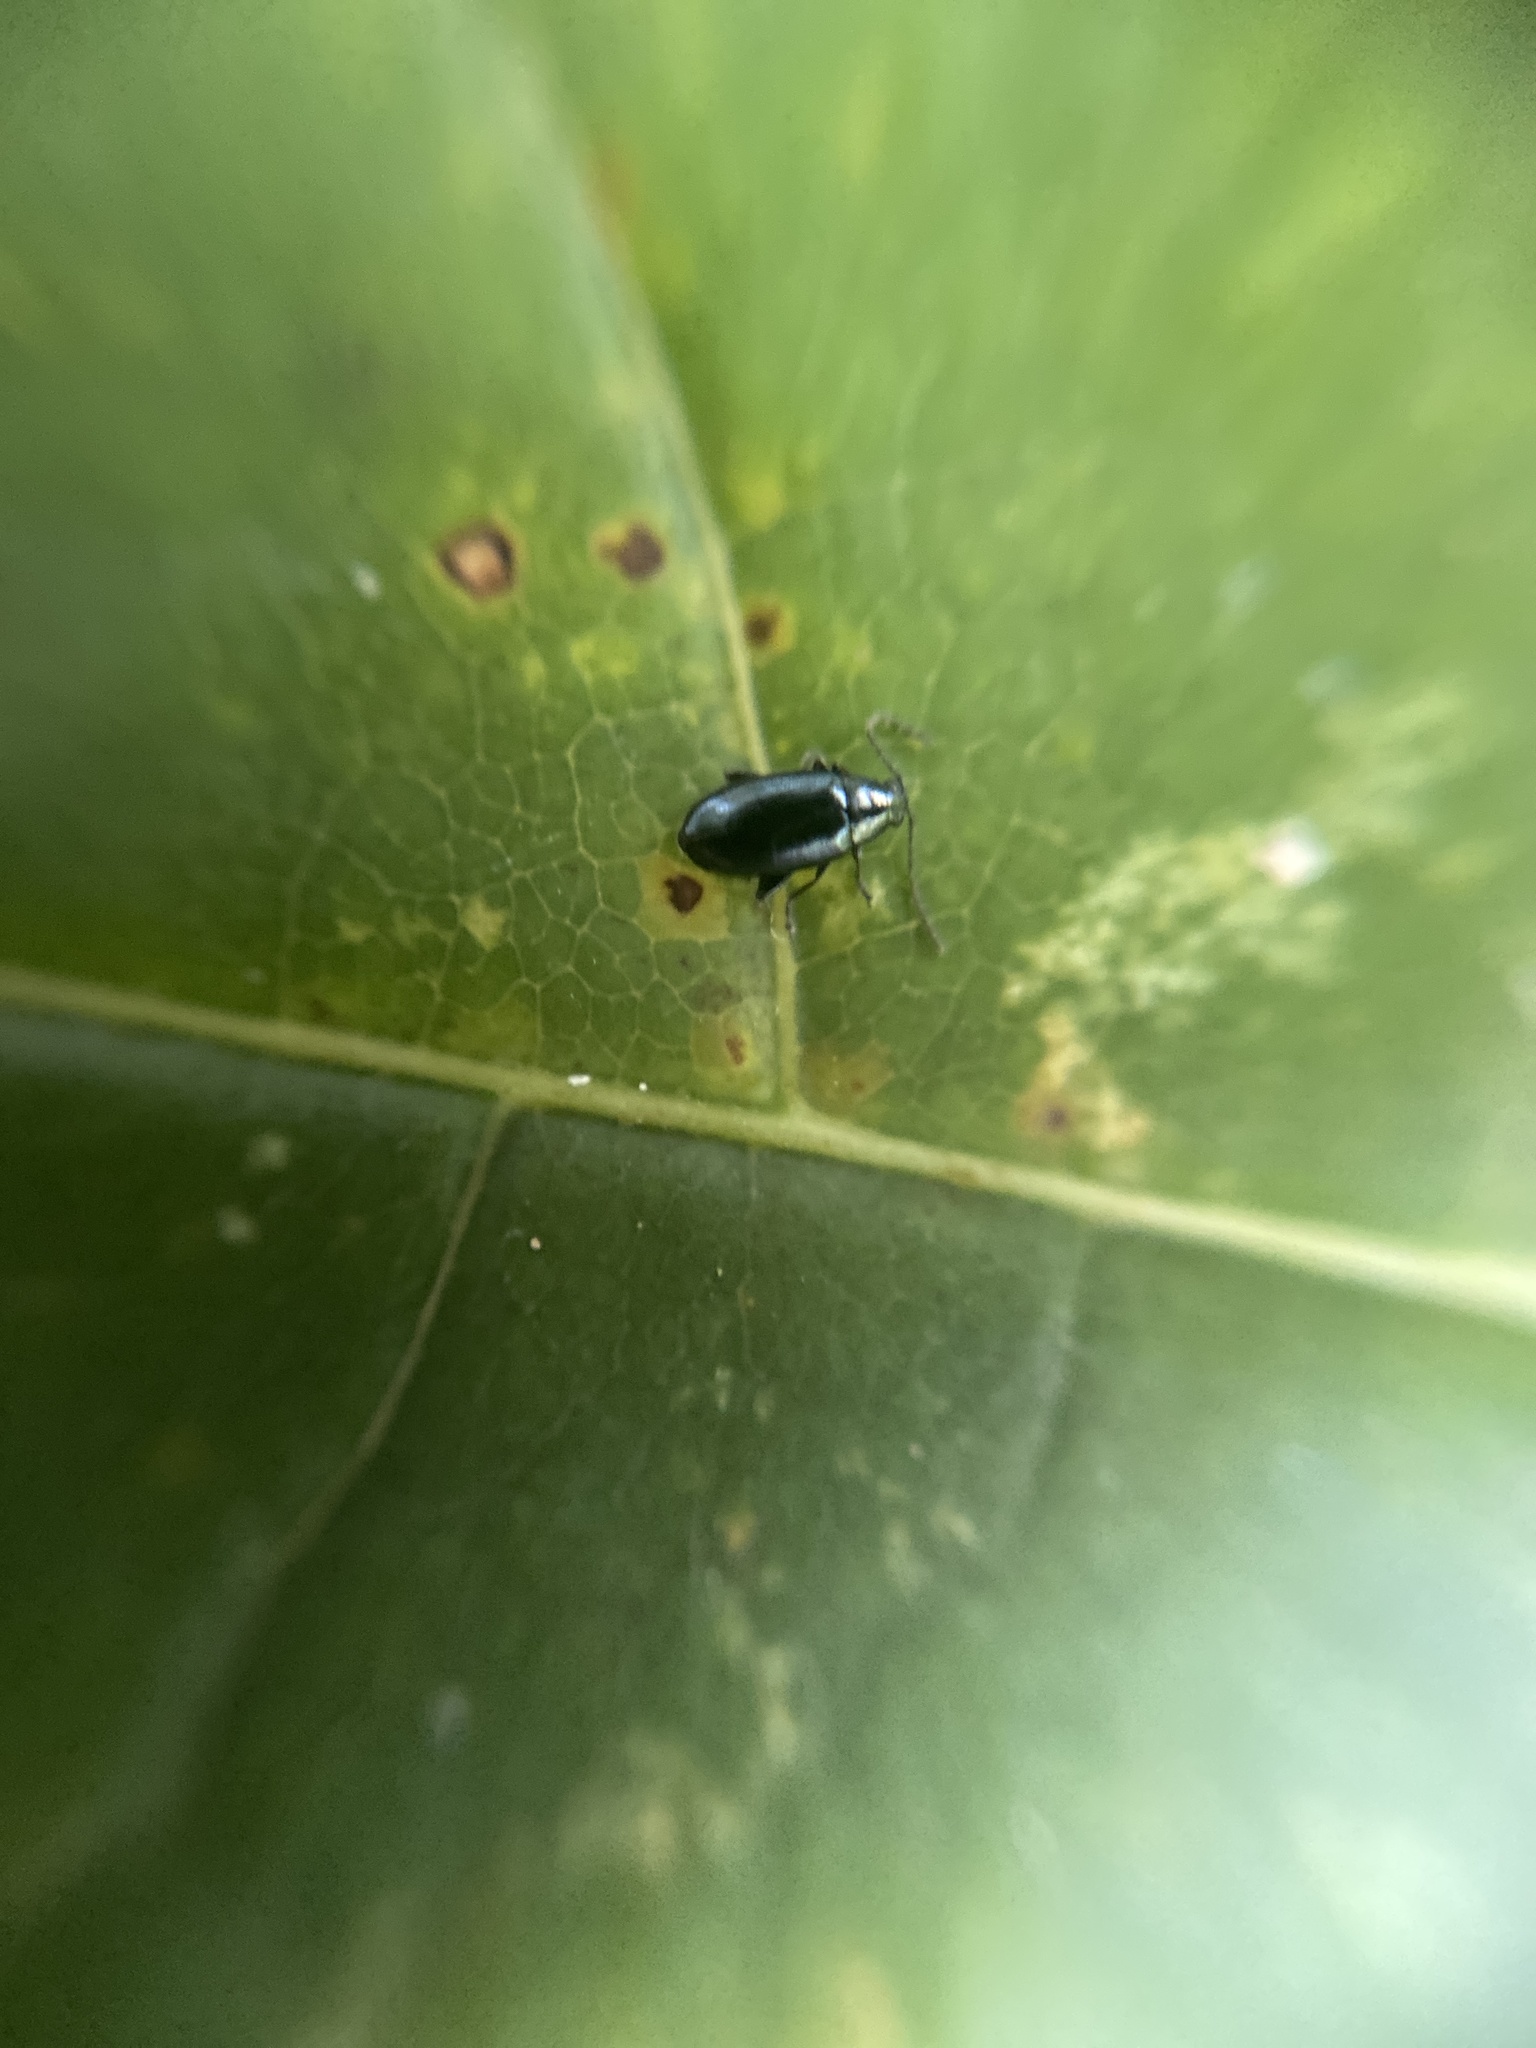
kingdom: Animalia
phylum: Arthropoda
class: Insecta
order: Coleoptera
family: Chrysomelidae
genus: Phyllotreta
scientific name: Phyllotreta nigripes
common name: Turnip flea beetle
